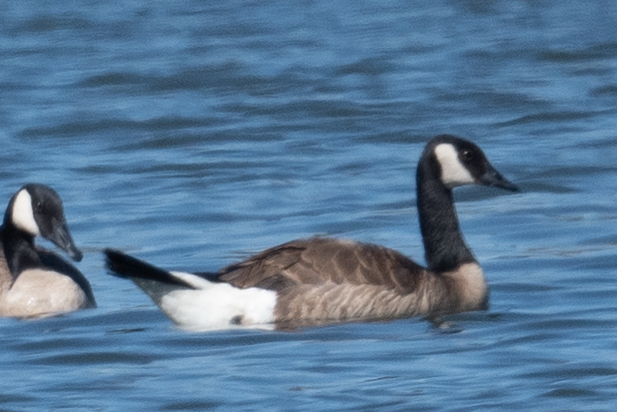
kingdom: Animalia
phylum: Chordata
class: Aves
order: Anseriformes
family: Anatidae
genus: Branta
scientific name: Branta canadensis
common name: Canada goose
